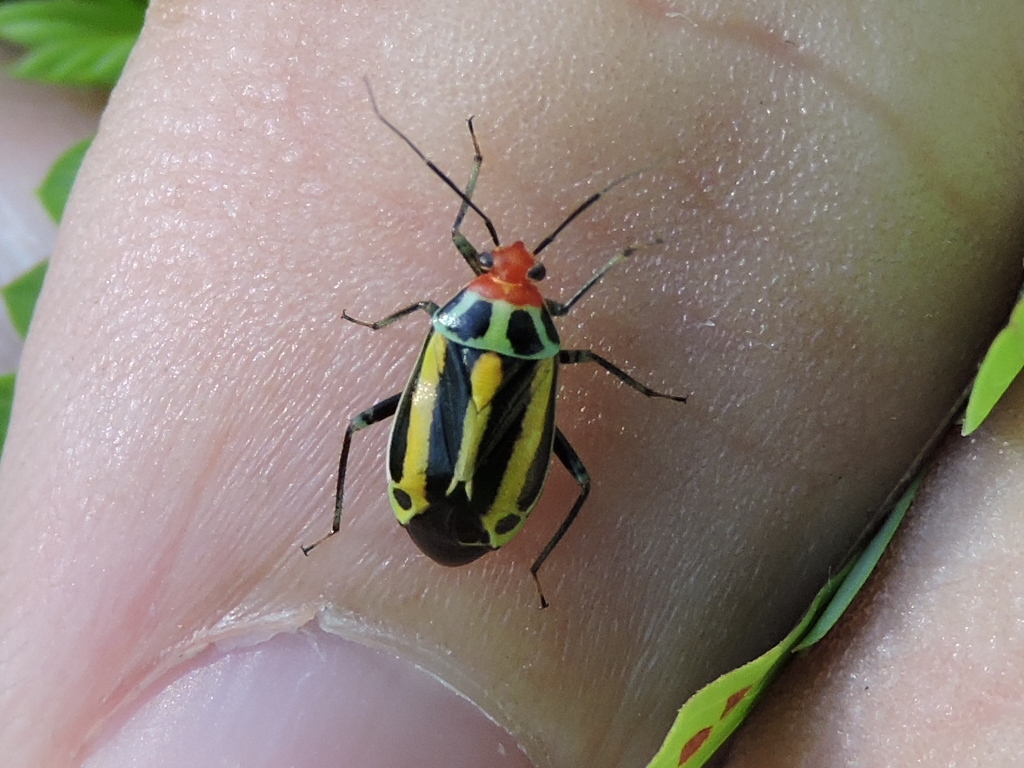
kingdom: Animalia
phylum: Arthropoda
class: Insecta
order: Hemiptera
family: Miridae
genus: Poecilocapsus
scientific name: Poecilocapsus lineatus
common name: Four-lined plant bug
